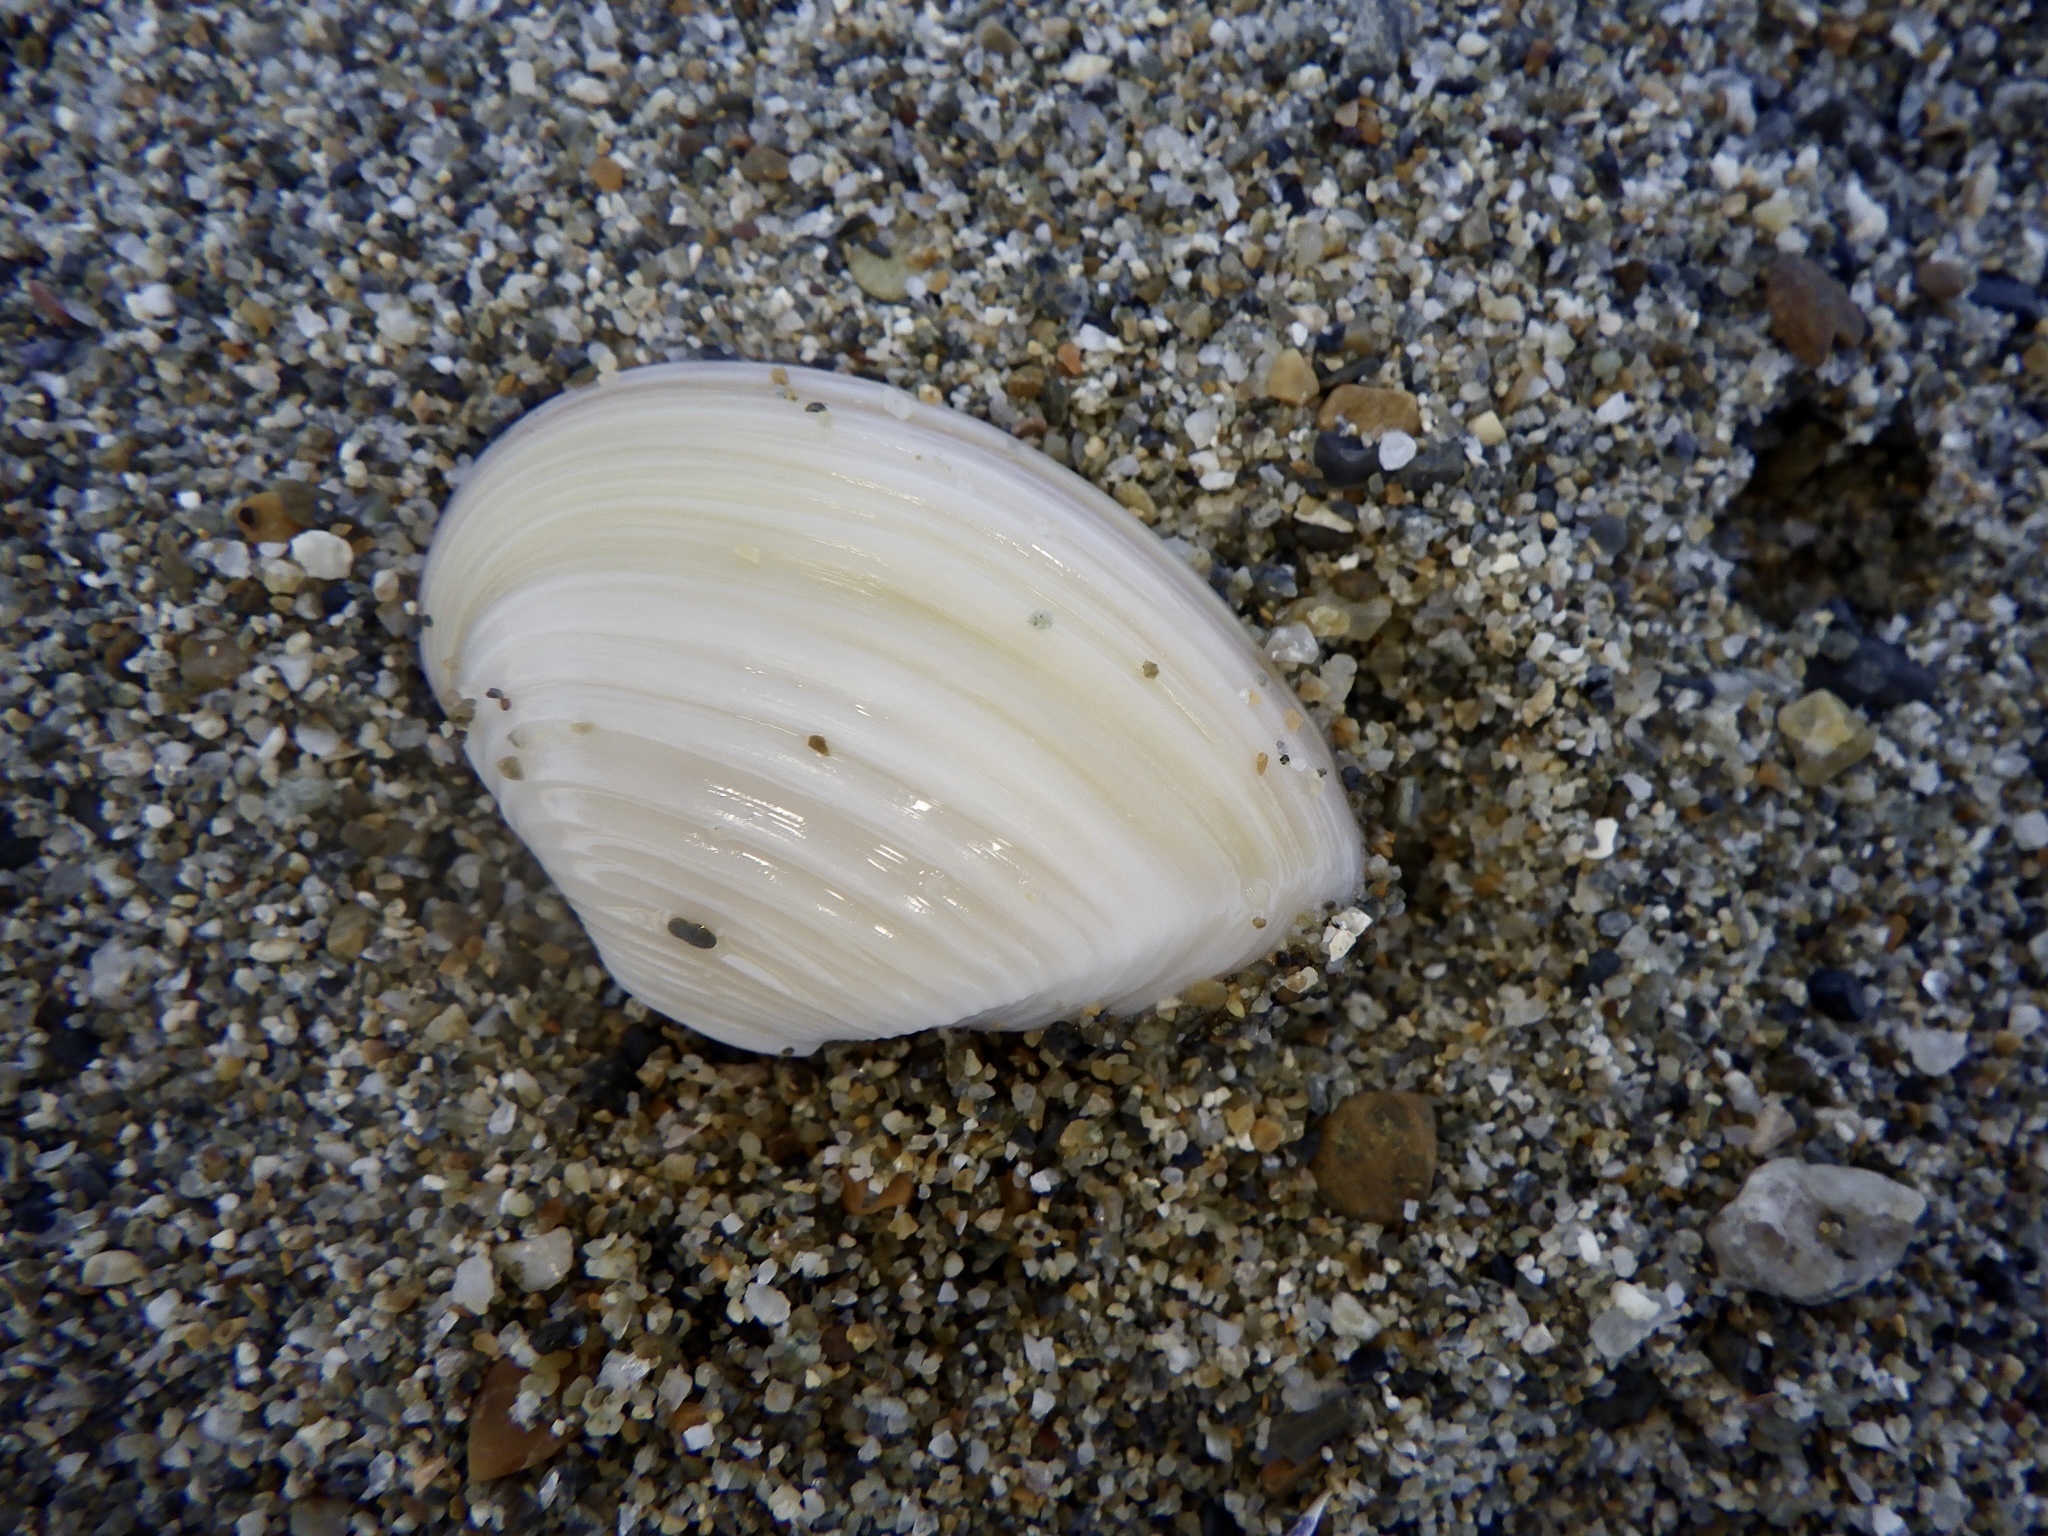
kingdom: Animalia
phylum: Mollusca
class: Bivalvia
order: Myida
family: Corbulidae
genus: Corbula
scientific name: Corbula erythrodon
